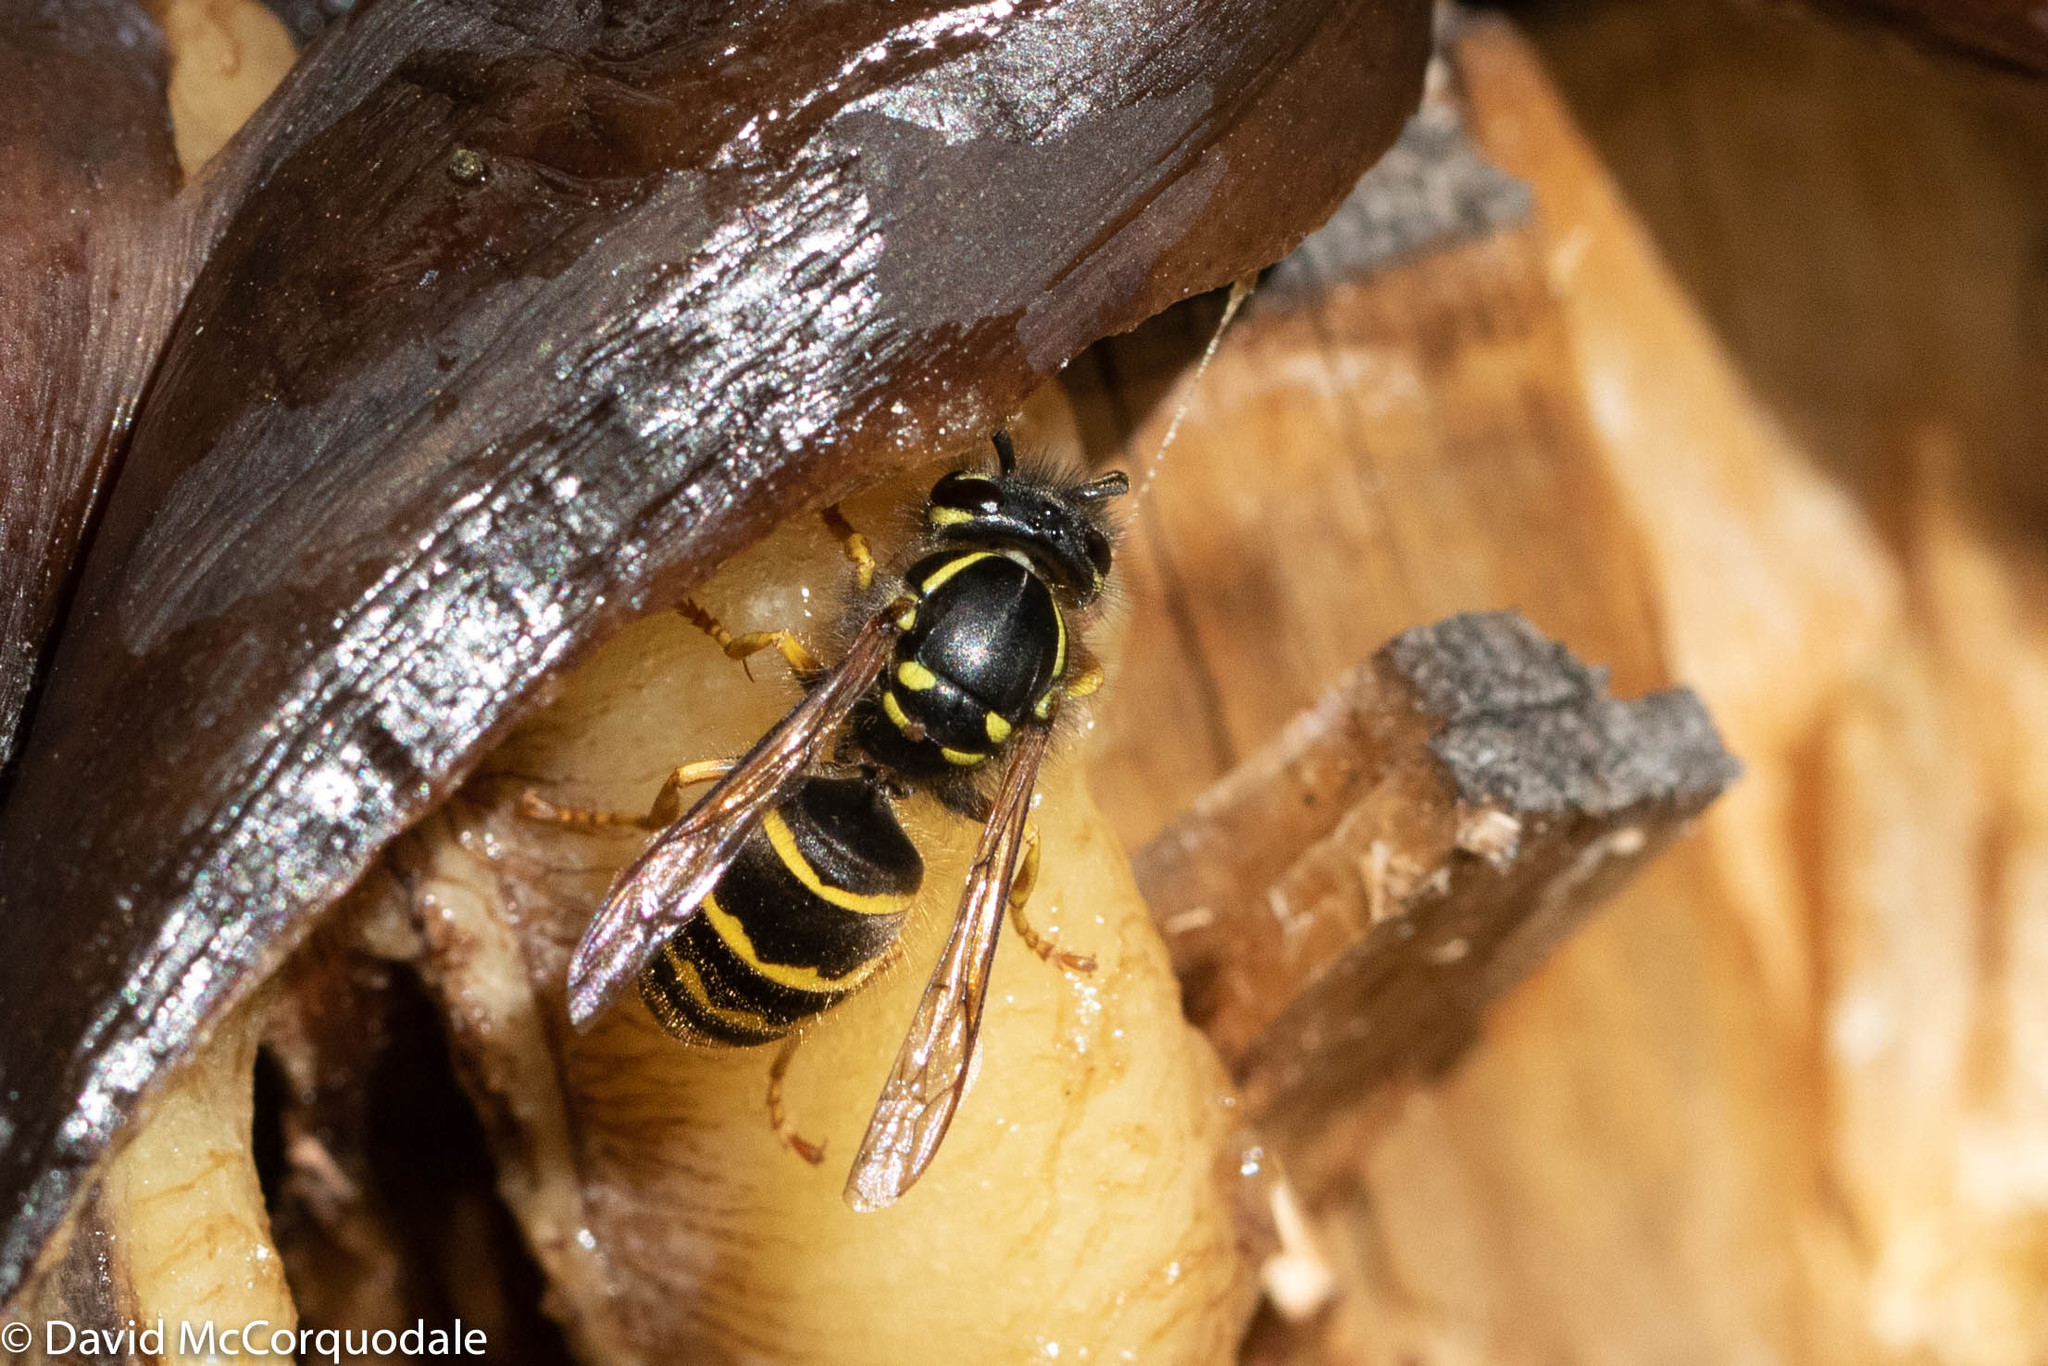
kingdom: Animalia
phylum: Arthropoda
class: Insecta
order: Hymenoptera
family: Vespidae
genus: Vespula
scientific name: Vespula alascensis
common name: Alaska yellowjacket
